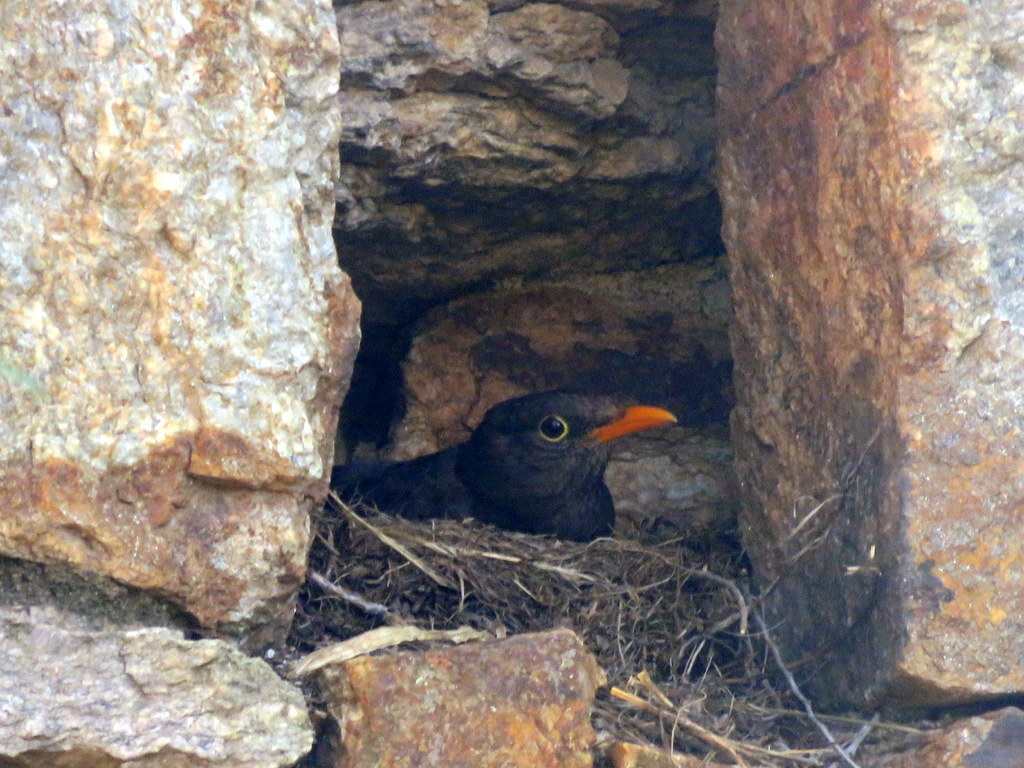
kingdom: Animalia
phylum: Chordata
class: Aves
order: Passeriformes
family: Turdidae
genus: Turdus
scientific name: Turdus chiguanco
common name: Chiguanco thrush
